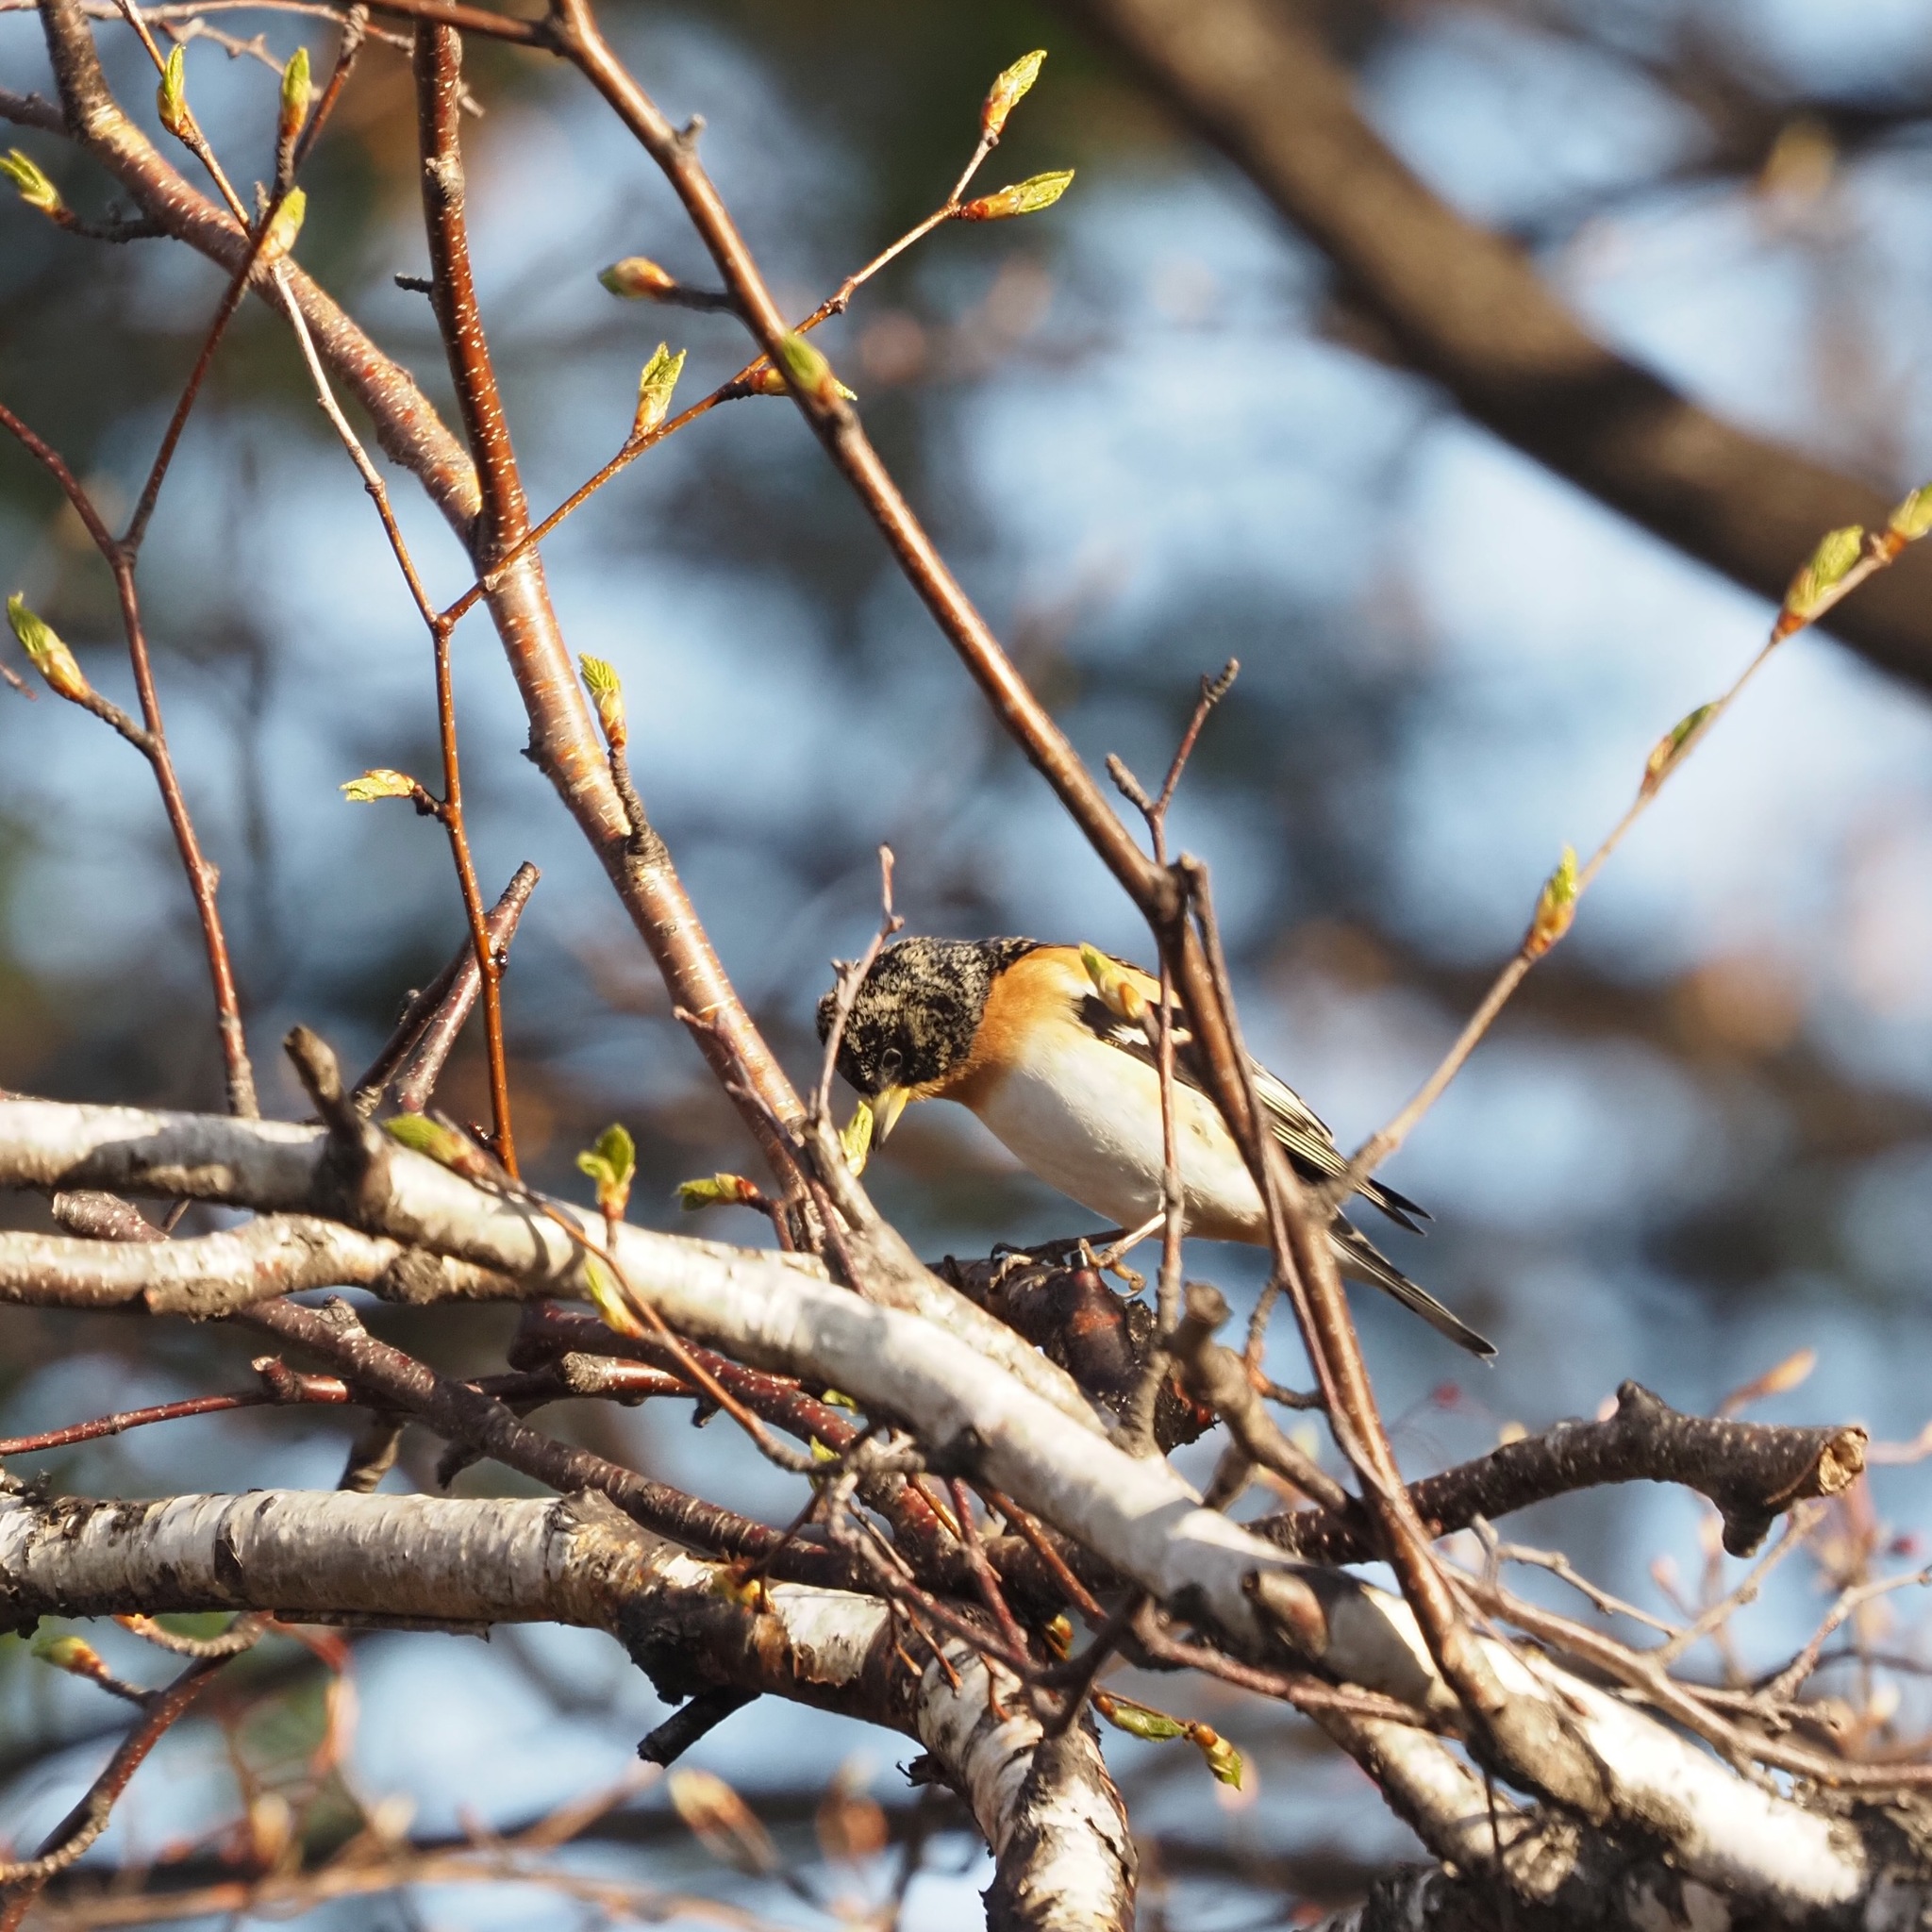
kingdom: Animalia
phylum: Chordata
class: Aves
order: Passeriformes
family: Fringillidae
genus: Fringilla
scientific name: Fringilla montifringilla
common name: Brambling
